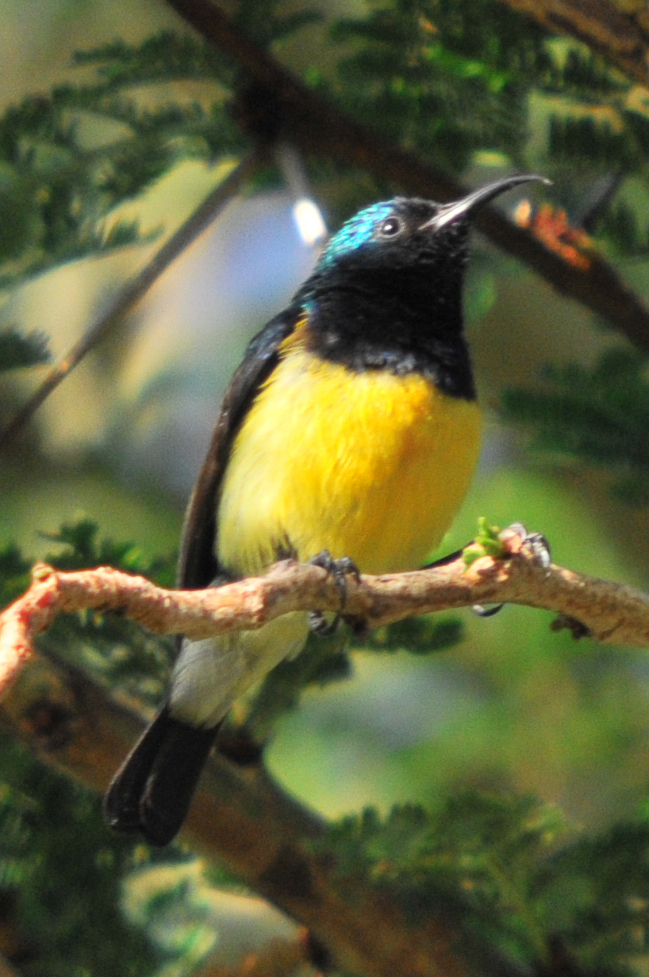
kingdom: Animalia
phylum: Chordata
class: Aves
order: Passeriformes
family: Nectariniidae
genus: Cinnyris
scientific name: Cinnyris venustus
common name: Variable sunbird
